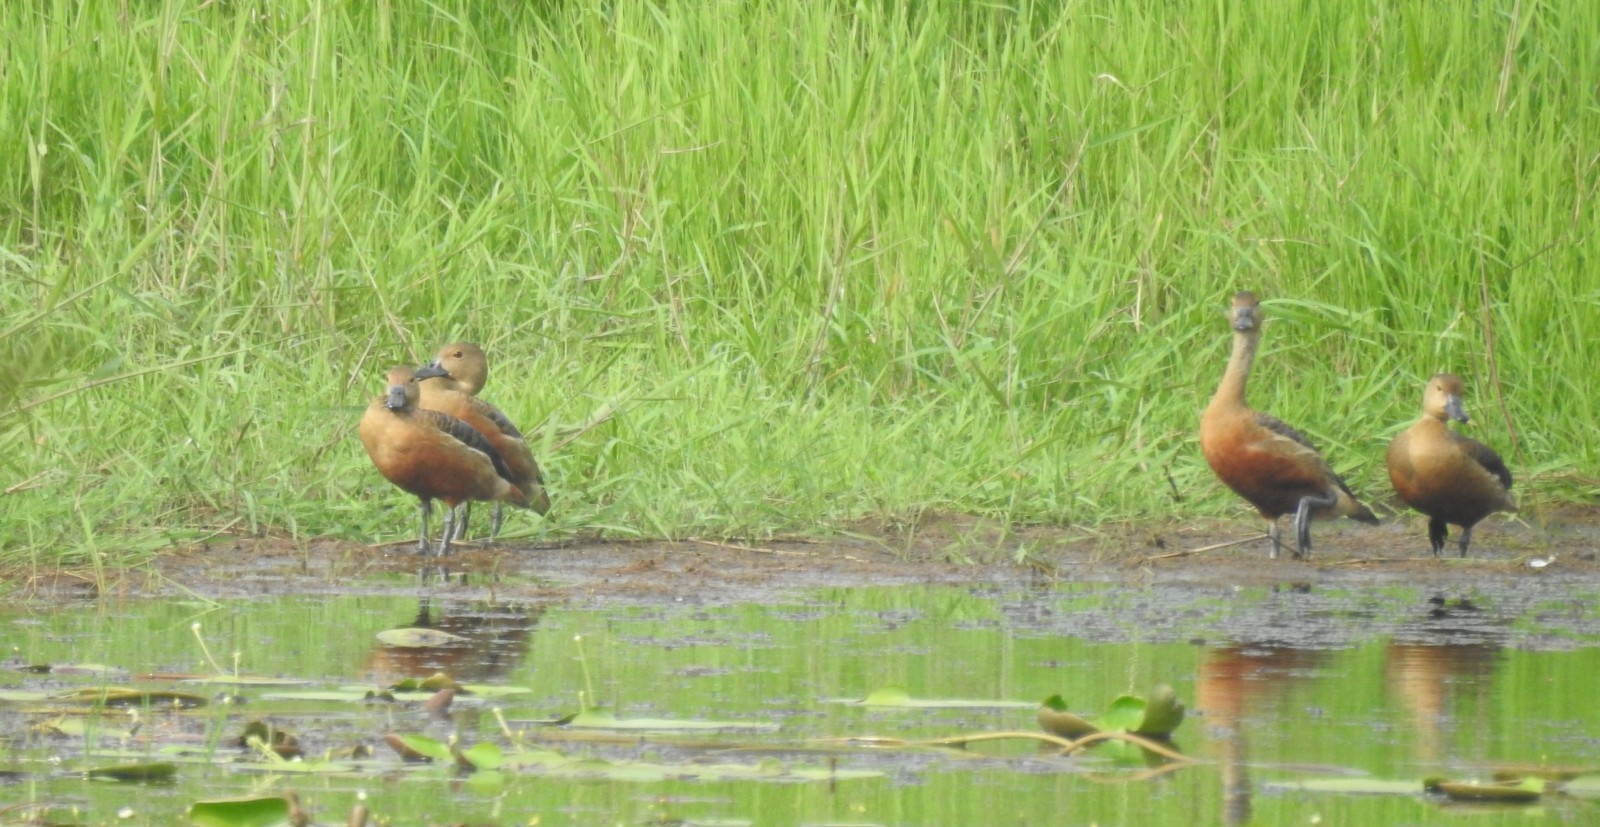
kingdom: Animalia
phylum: Chordata
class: Aves
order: Anseriformes
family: Anatidae
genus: Dendrocygna
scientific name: Dendrocygna javanica
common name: Lesser whistling-duck
